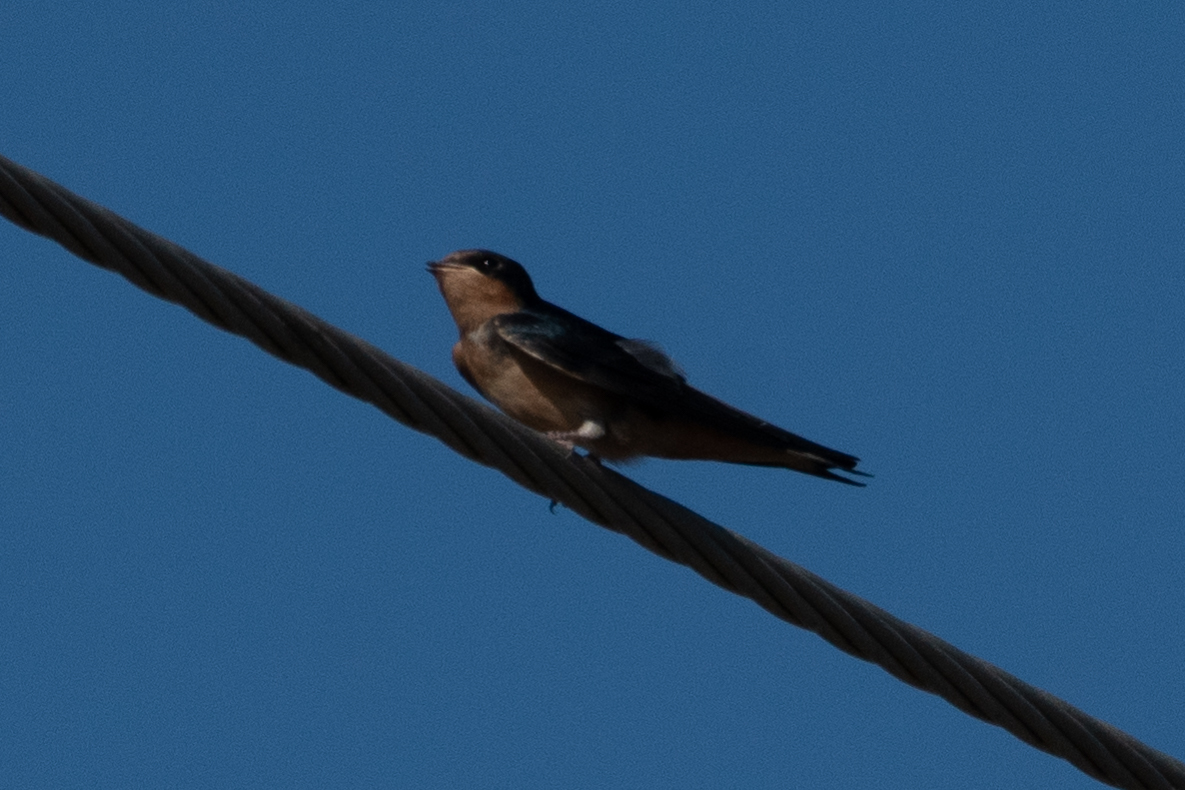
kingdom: Animalia
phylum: Chordata
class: Aves
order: Passeriformes
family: Hirundinidae
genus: Hirundo
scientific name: Hirundo rustica
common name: Barn swallow
